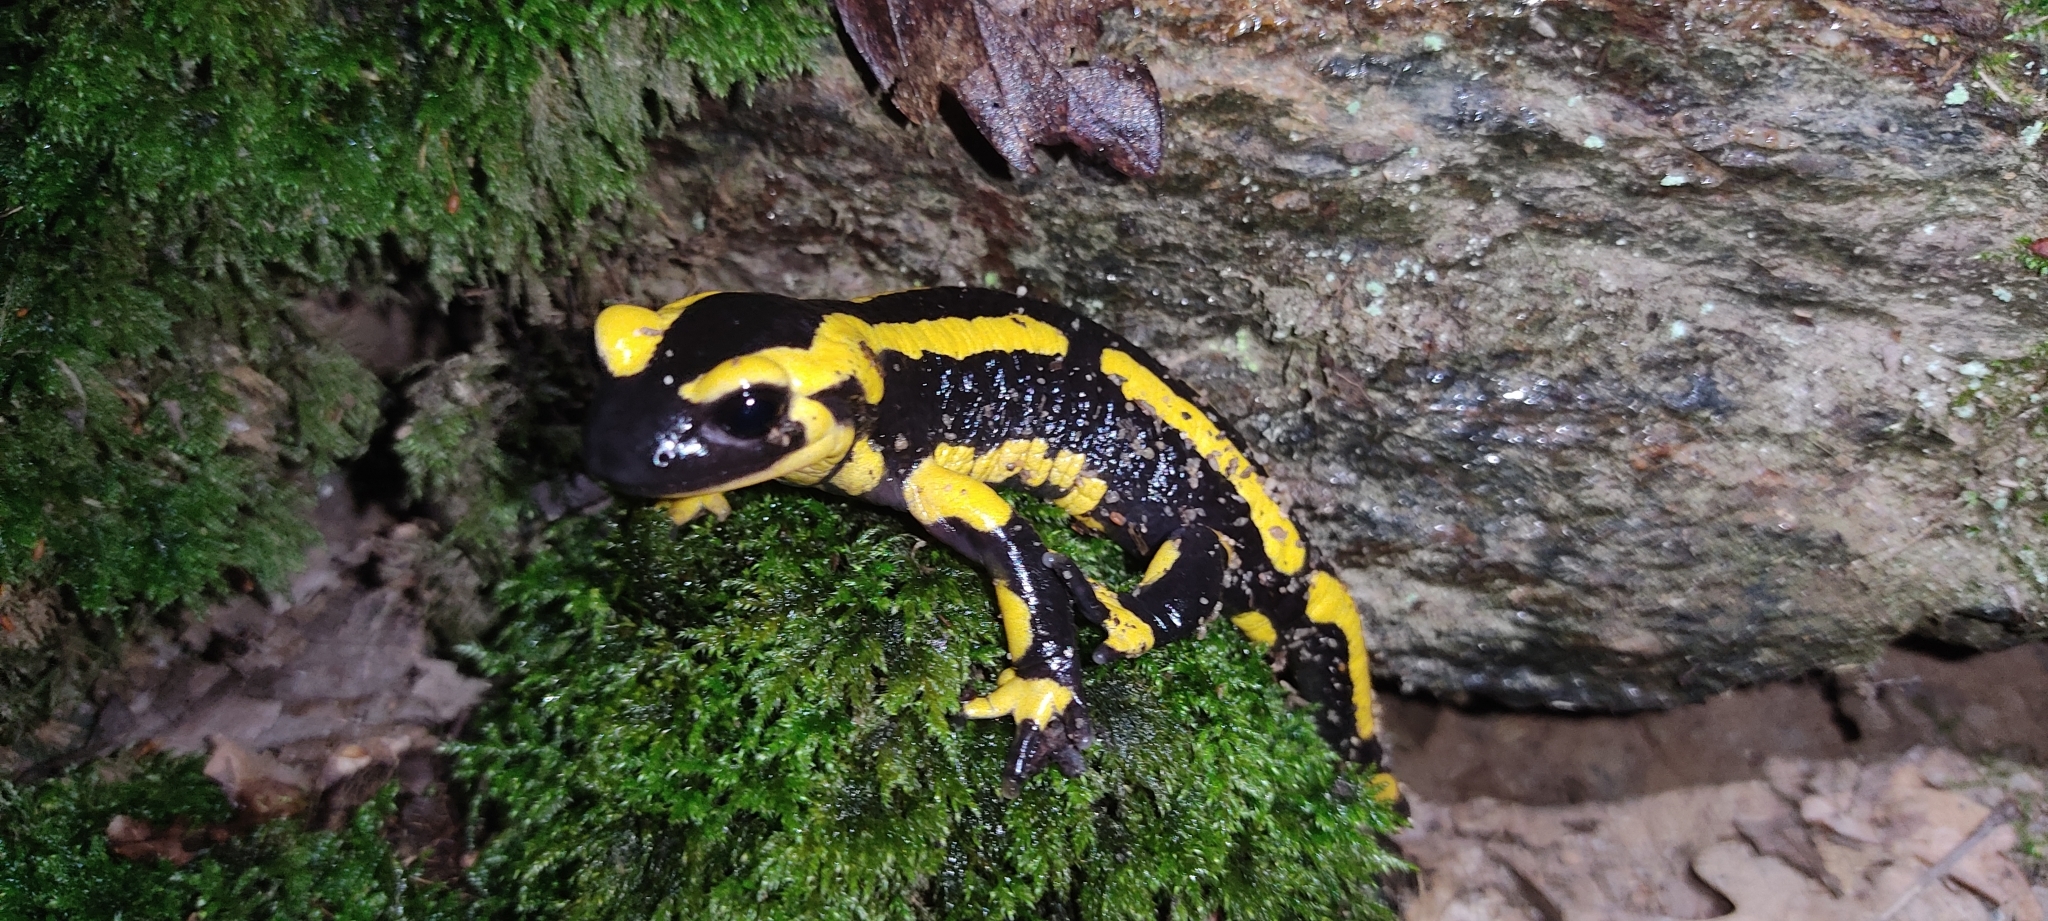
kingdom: Animalia
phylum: Chordata
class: Amphibia
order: Caudata
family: Salamandridae
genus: Salamandra
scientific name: Salamandra salamandra
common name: Fire salamander
